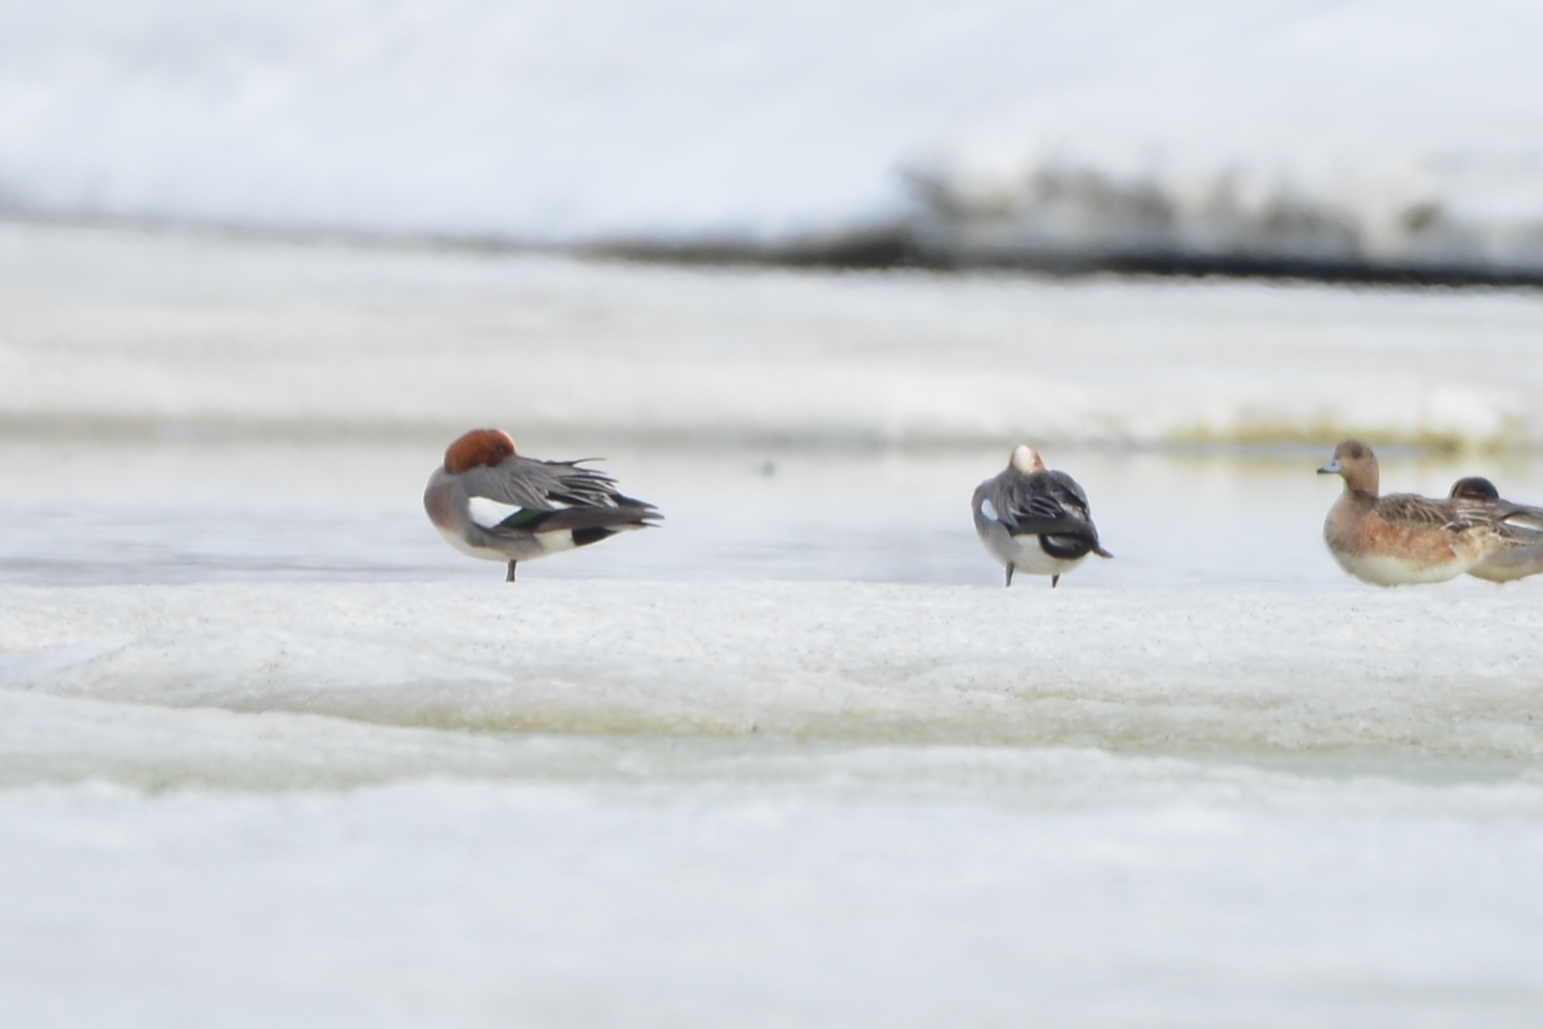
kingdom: Animalia
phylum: Chordata
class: Aves
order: Anseriformes
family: Anatidae
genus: Mareca
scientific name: Mareca penelope
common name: Eurasian wigeon
